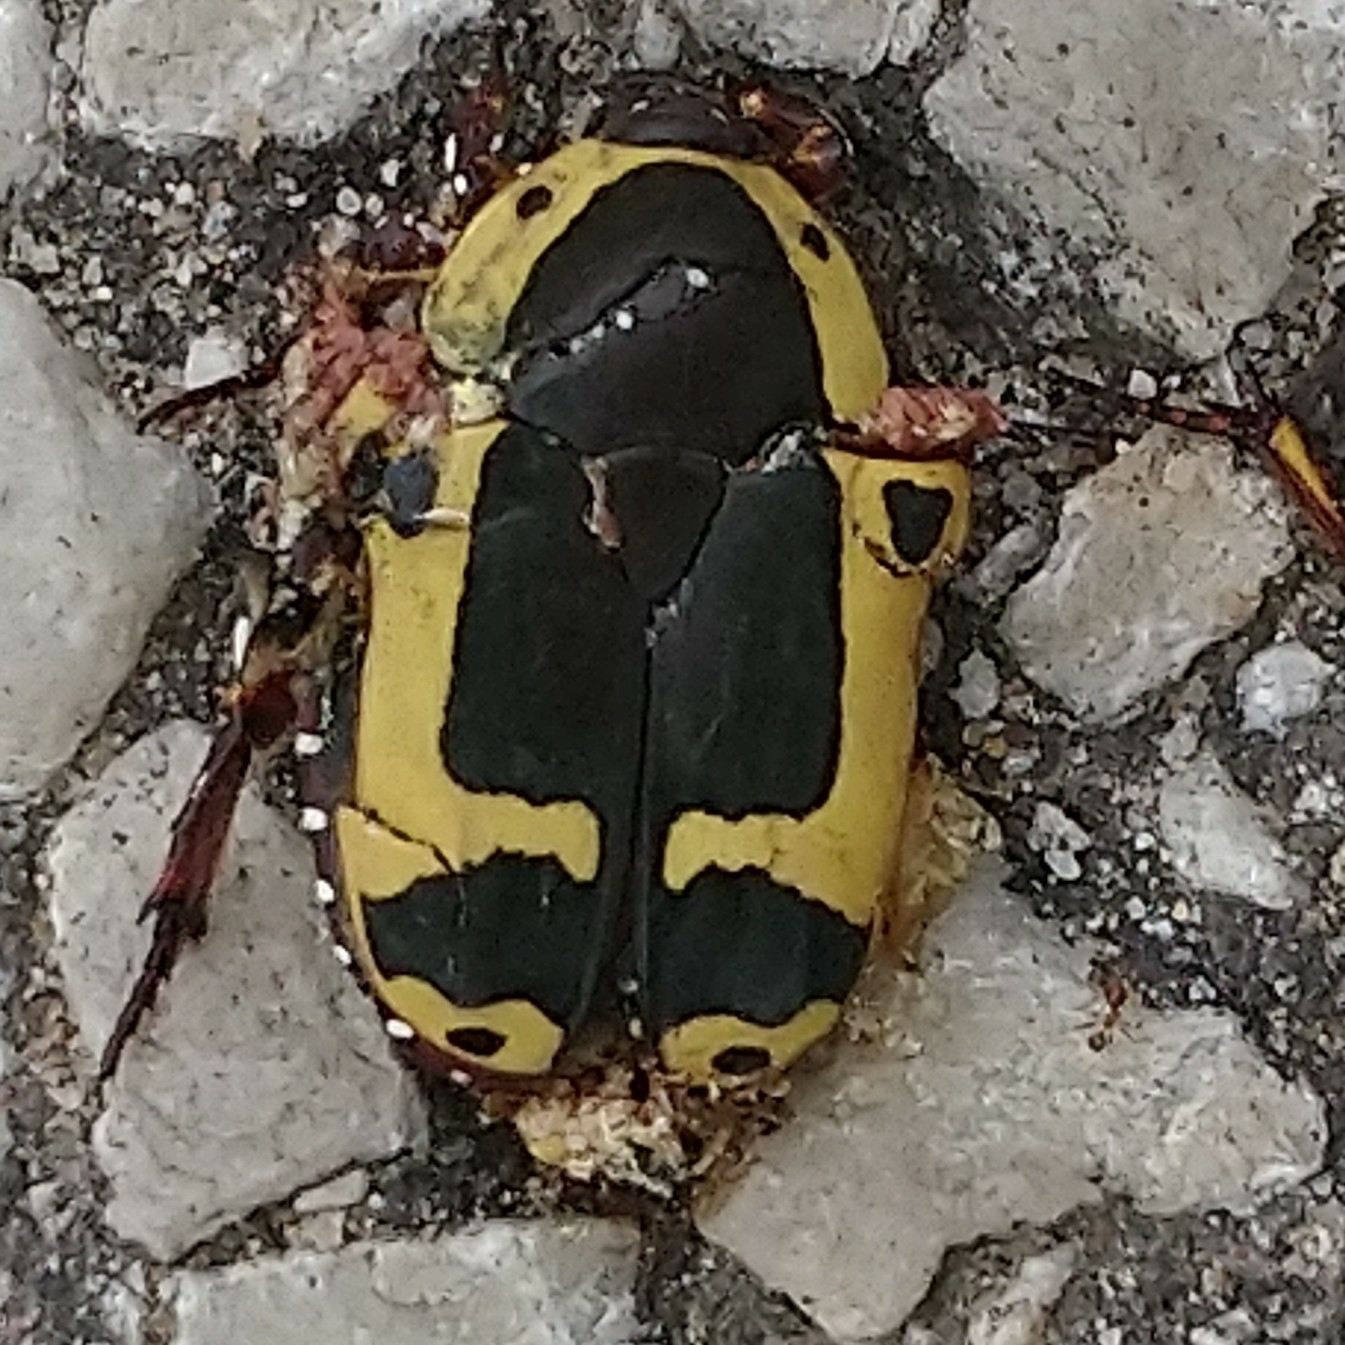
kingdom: Animalia
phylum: Arthropoda
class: Insecta
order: Coleoptera
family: Scarabaeidae
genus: Pachnoda
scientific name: Pachnoda sinuata
